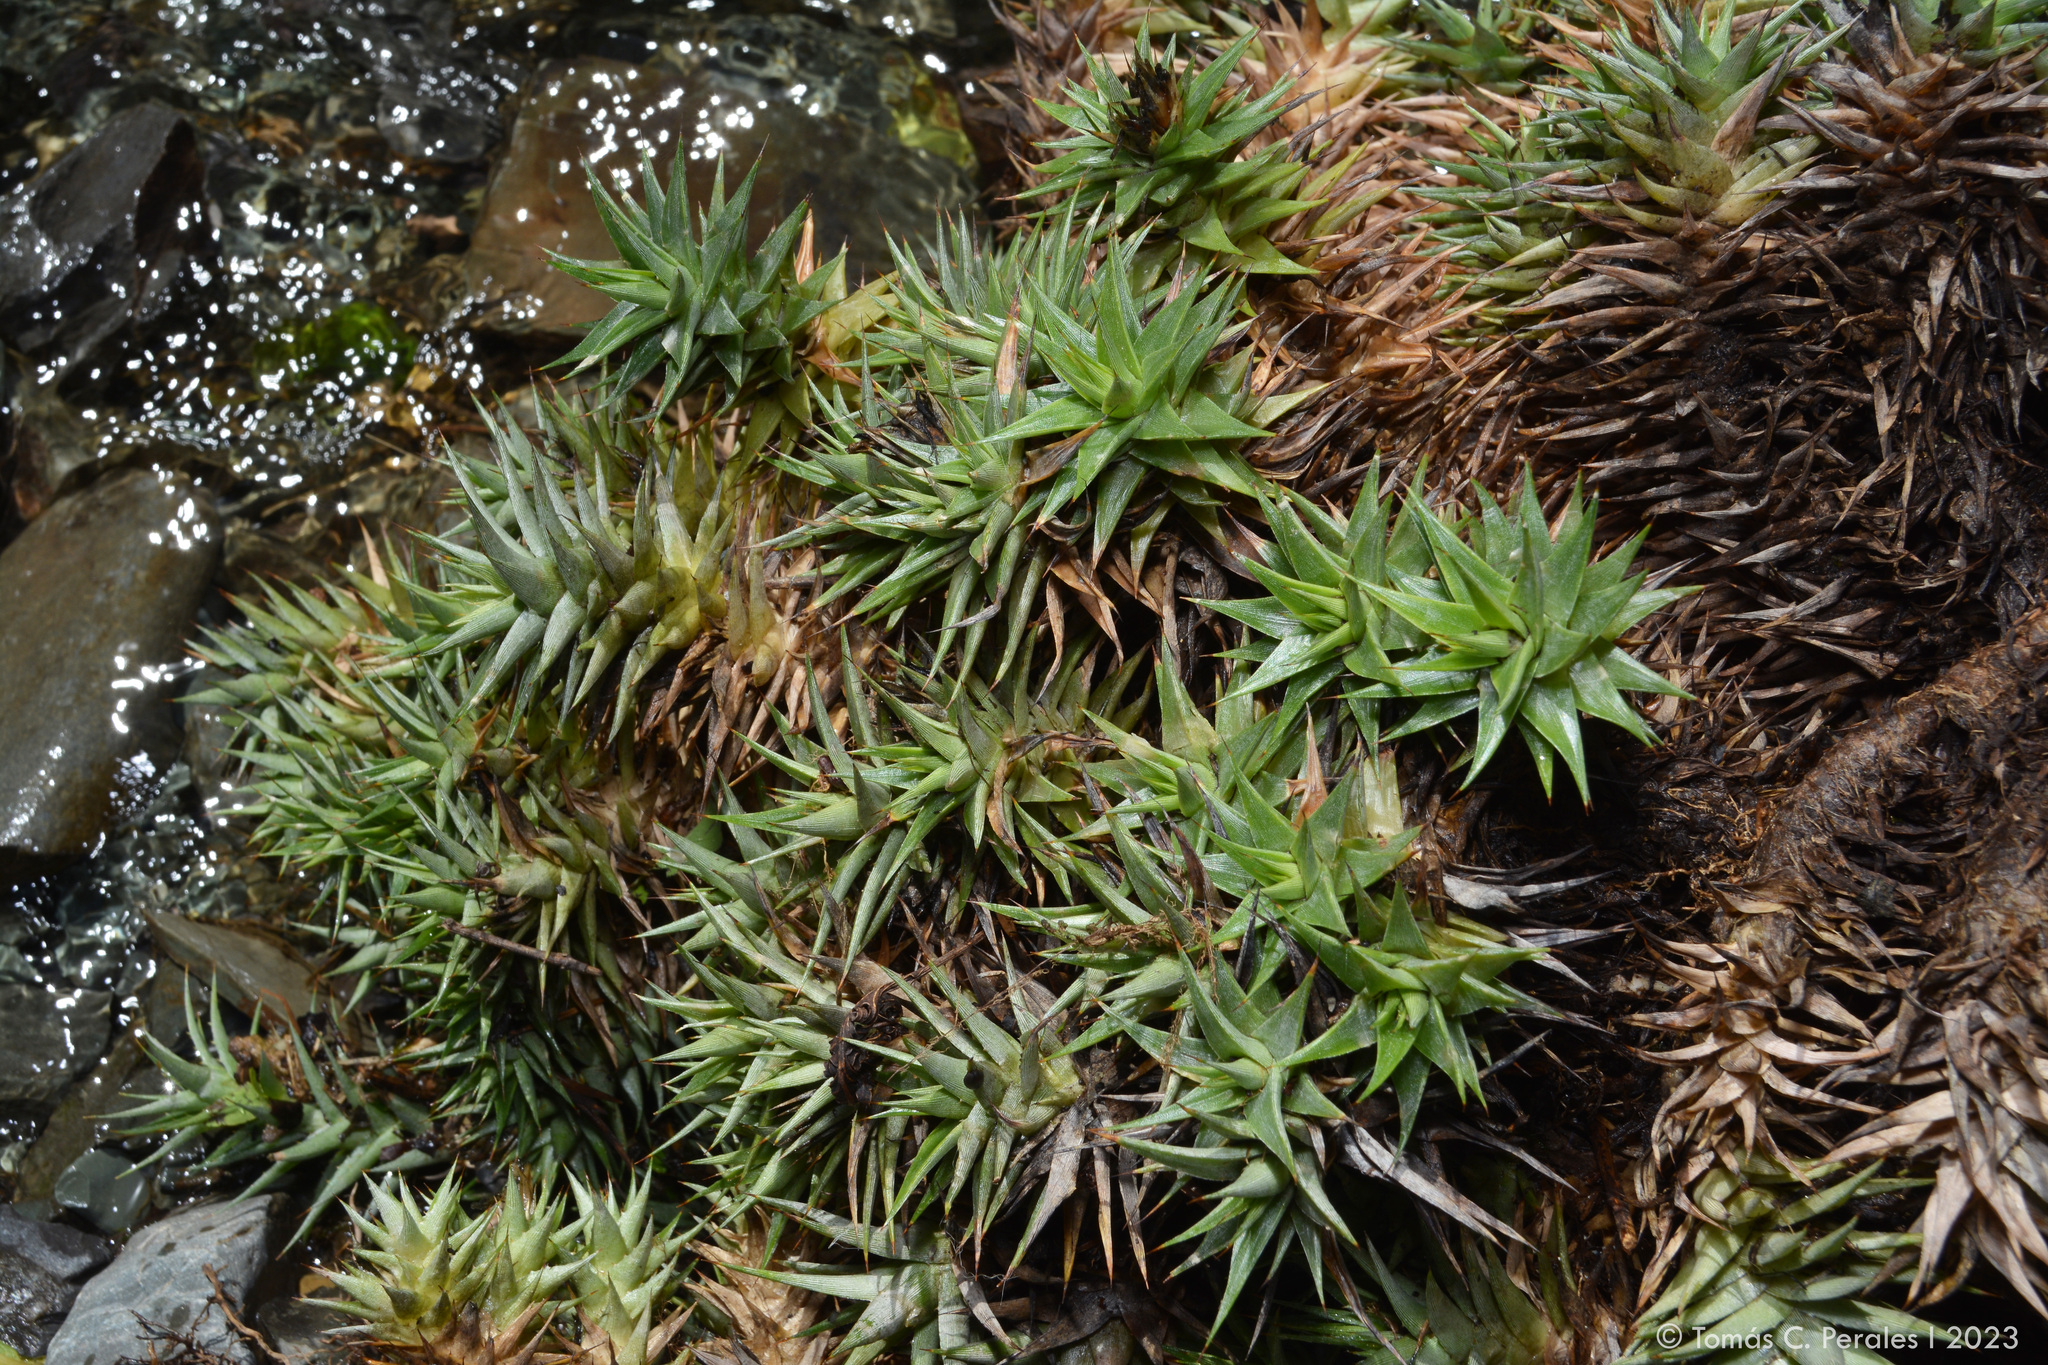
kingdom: Plantae
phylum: Tracheophyta
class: Liliopsida
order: Poales
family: Bromeliaceae
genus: Deuterocohnia
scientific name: Deuterocohnia brevifolia
